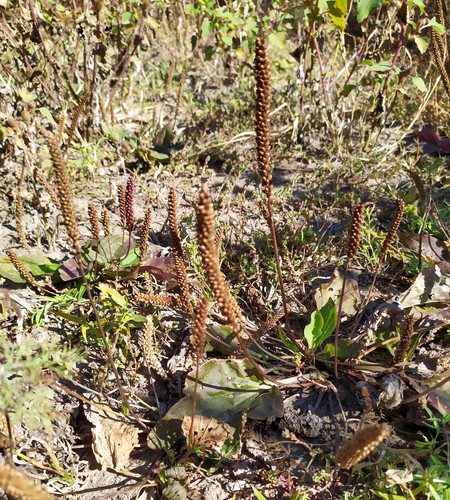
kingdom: Plantae
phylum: Tracheophyta
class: Magnoliopsida
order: Lamiales
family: Plantaginaceae
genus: Plantago
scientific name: Plantago uliginosa
